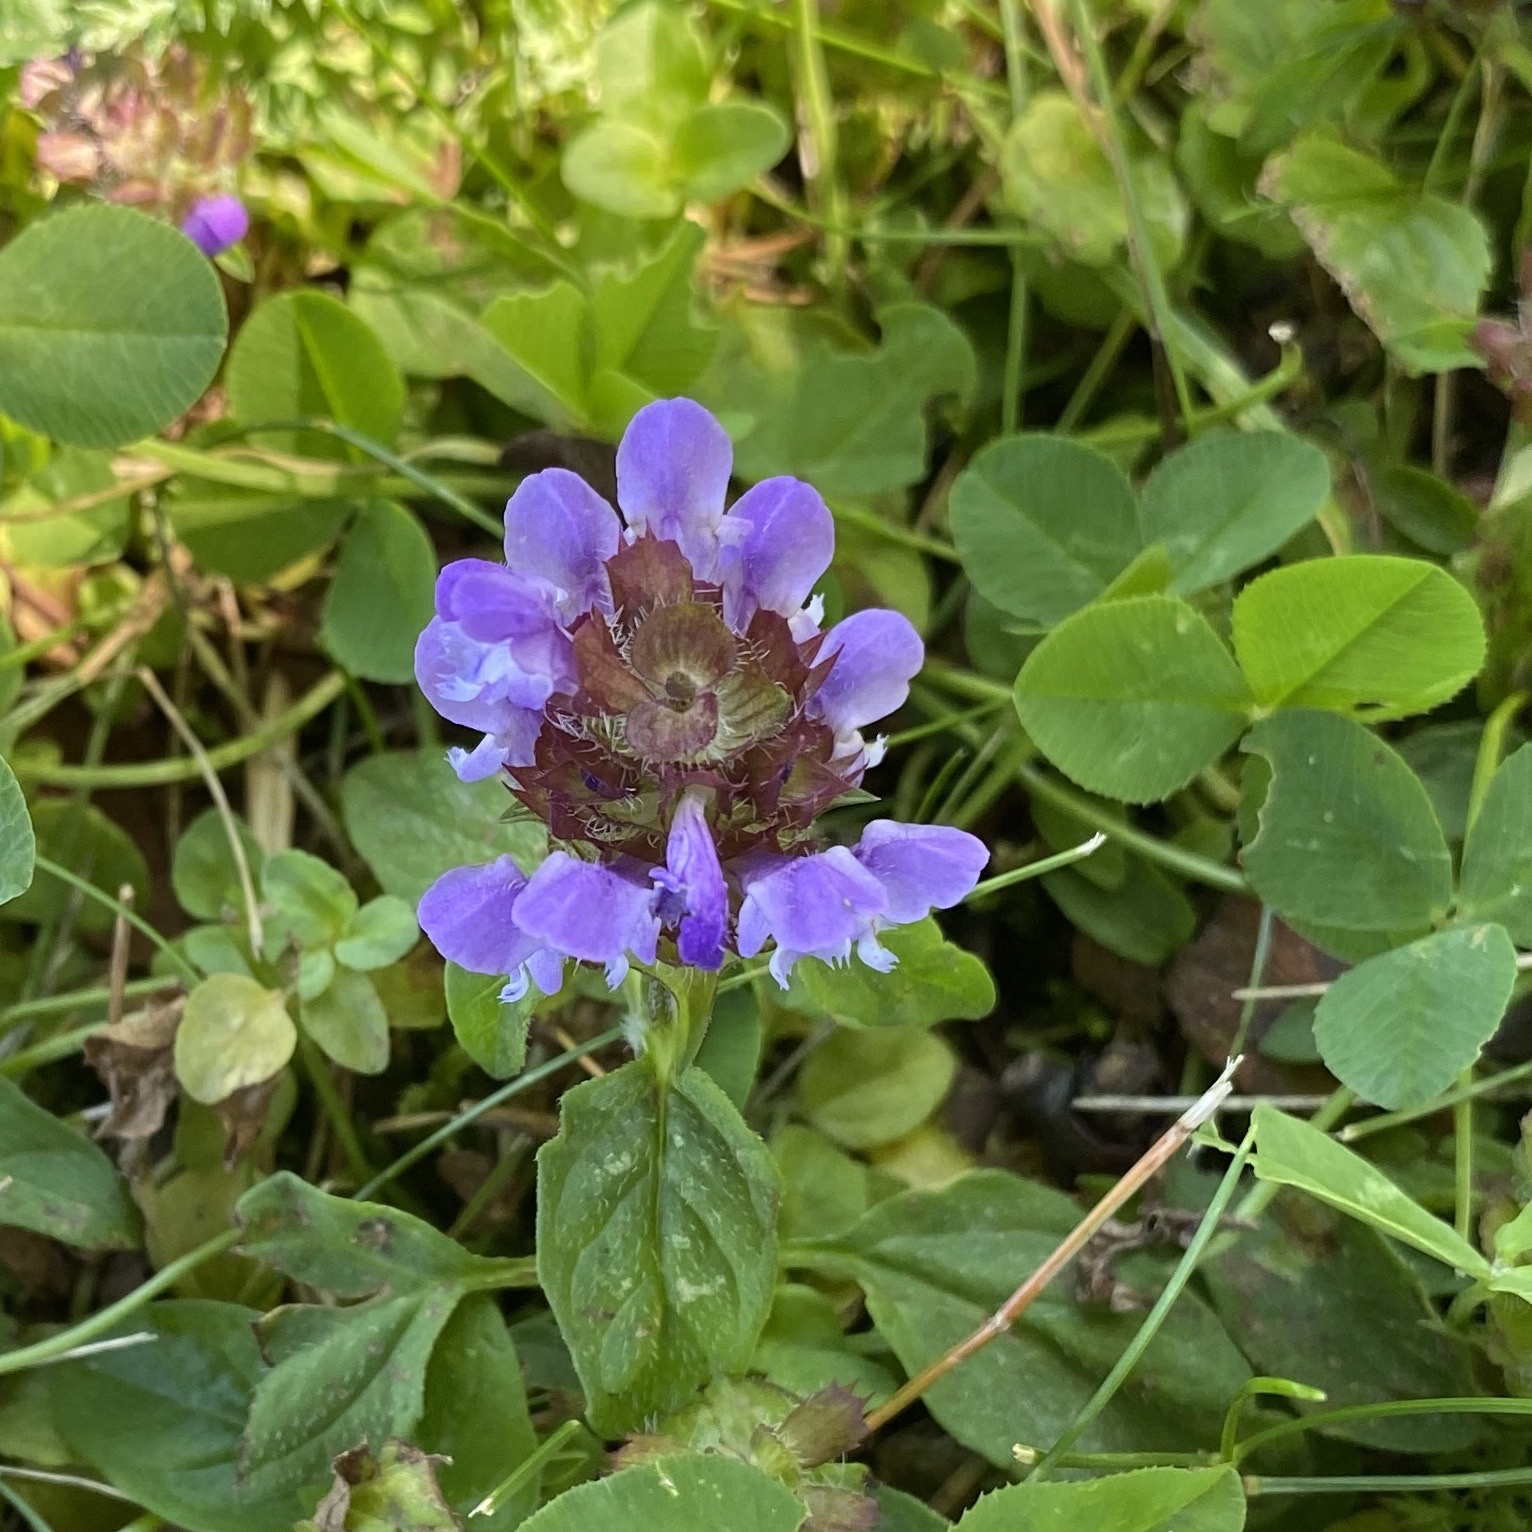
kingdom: Plantae
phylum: Tracheophyta
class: Magnoliopsida
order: Lamiales
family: Lamiaceae
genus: Prunella
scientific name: Prunella vulgaris
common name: Heal-all
